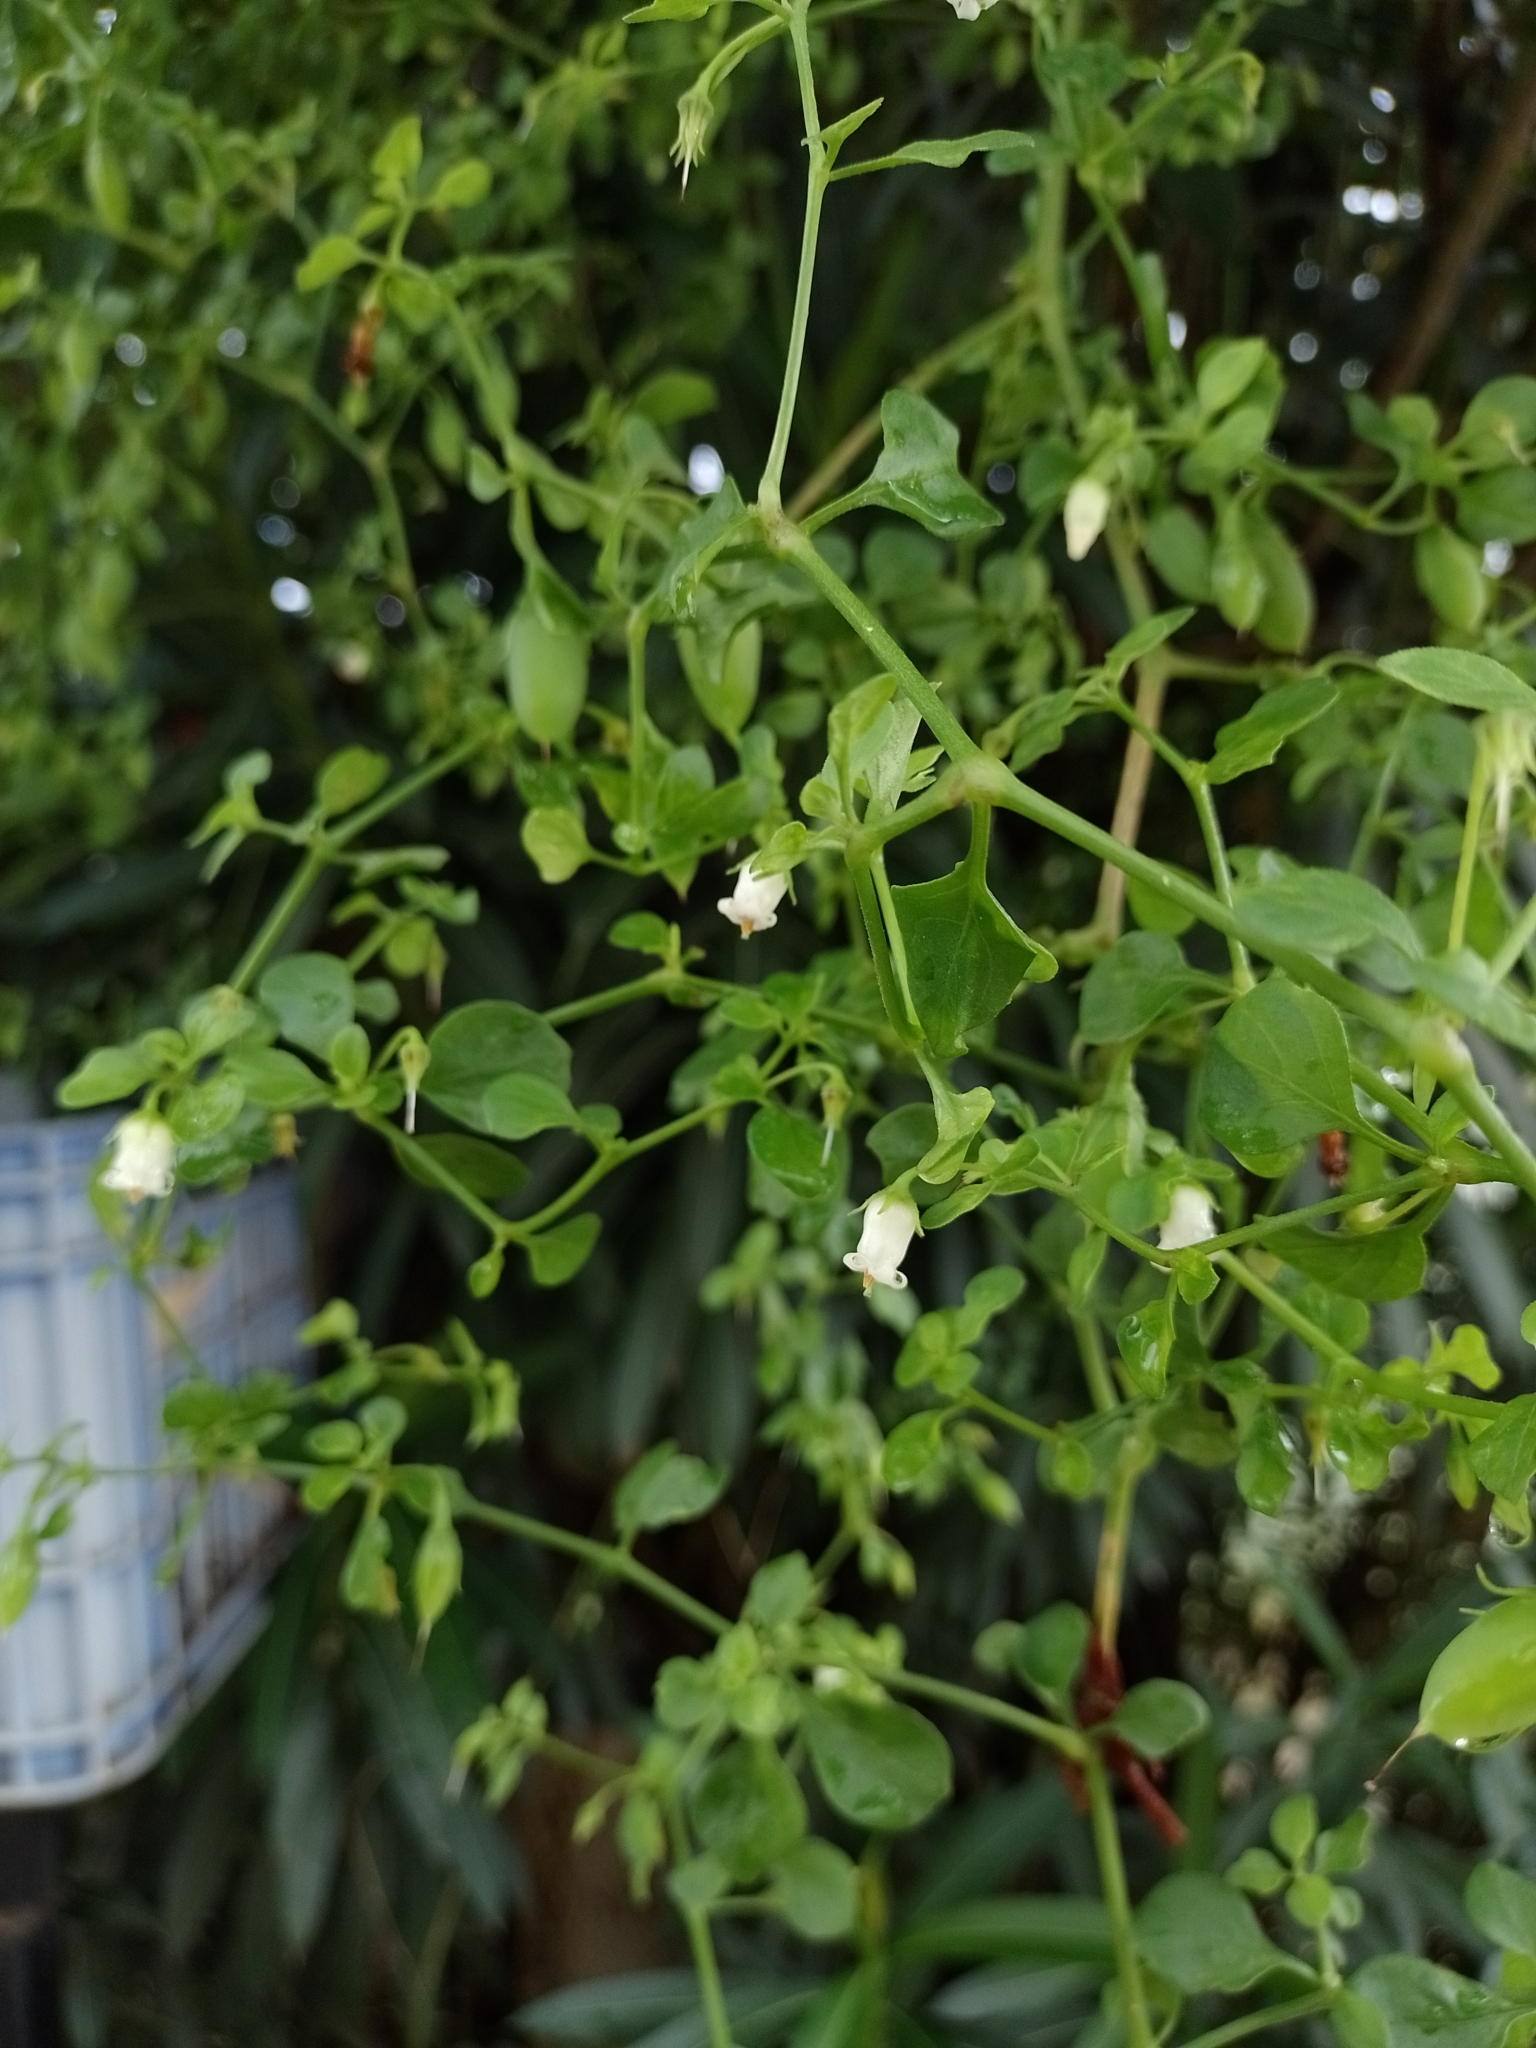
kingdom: Plantae
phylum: Tracheophyta
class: Magnoliopsida
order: Solanales
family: Solanaceae
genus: Salpichroa
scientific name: Salpichroa origanifolia
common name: Lily-of-the-valley-vine
